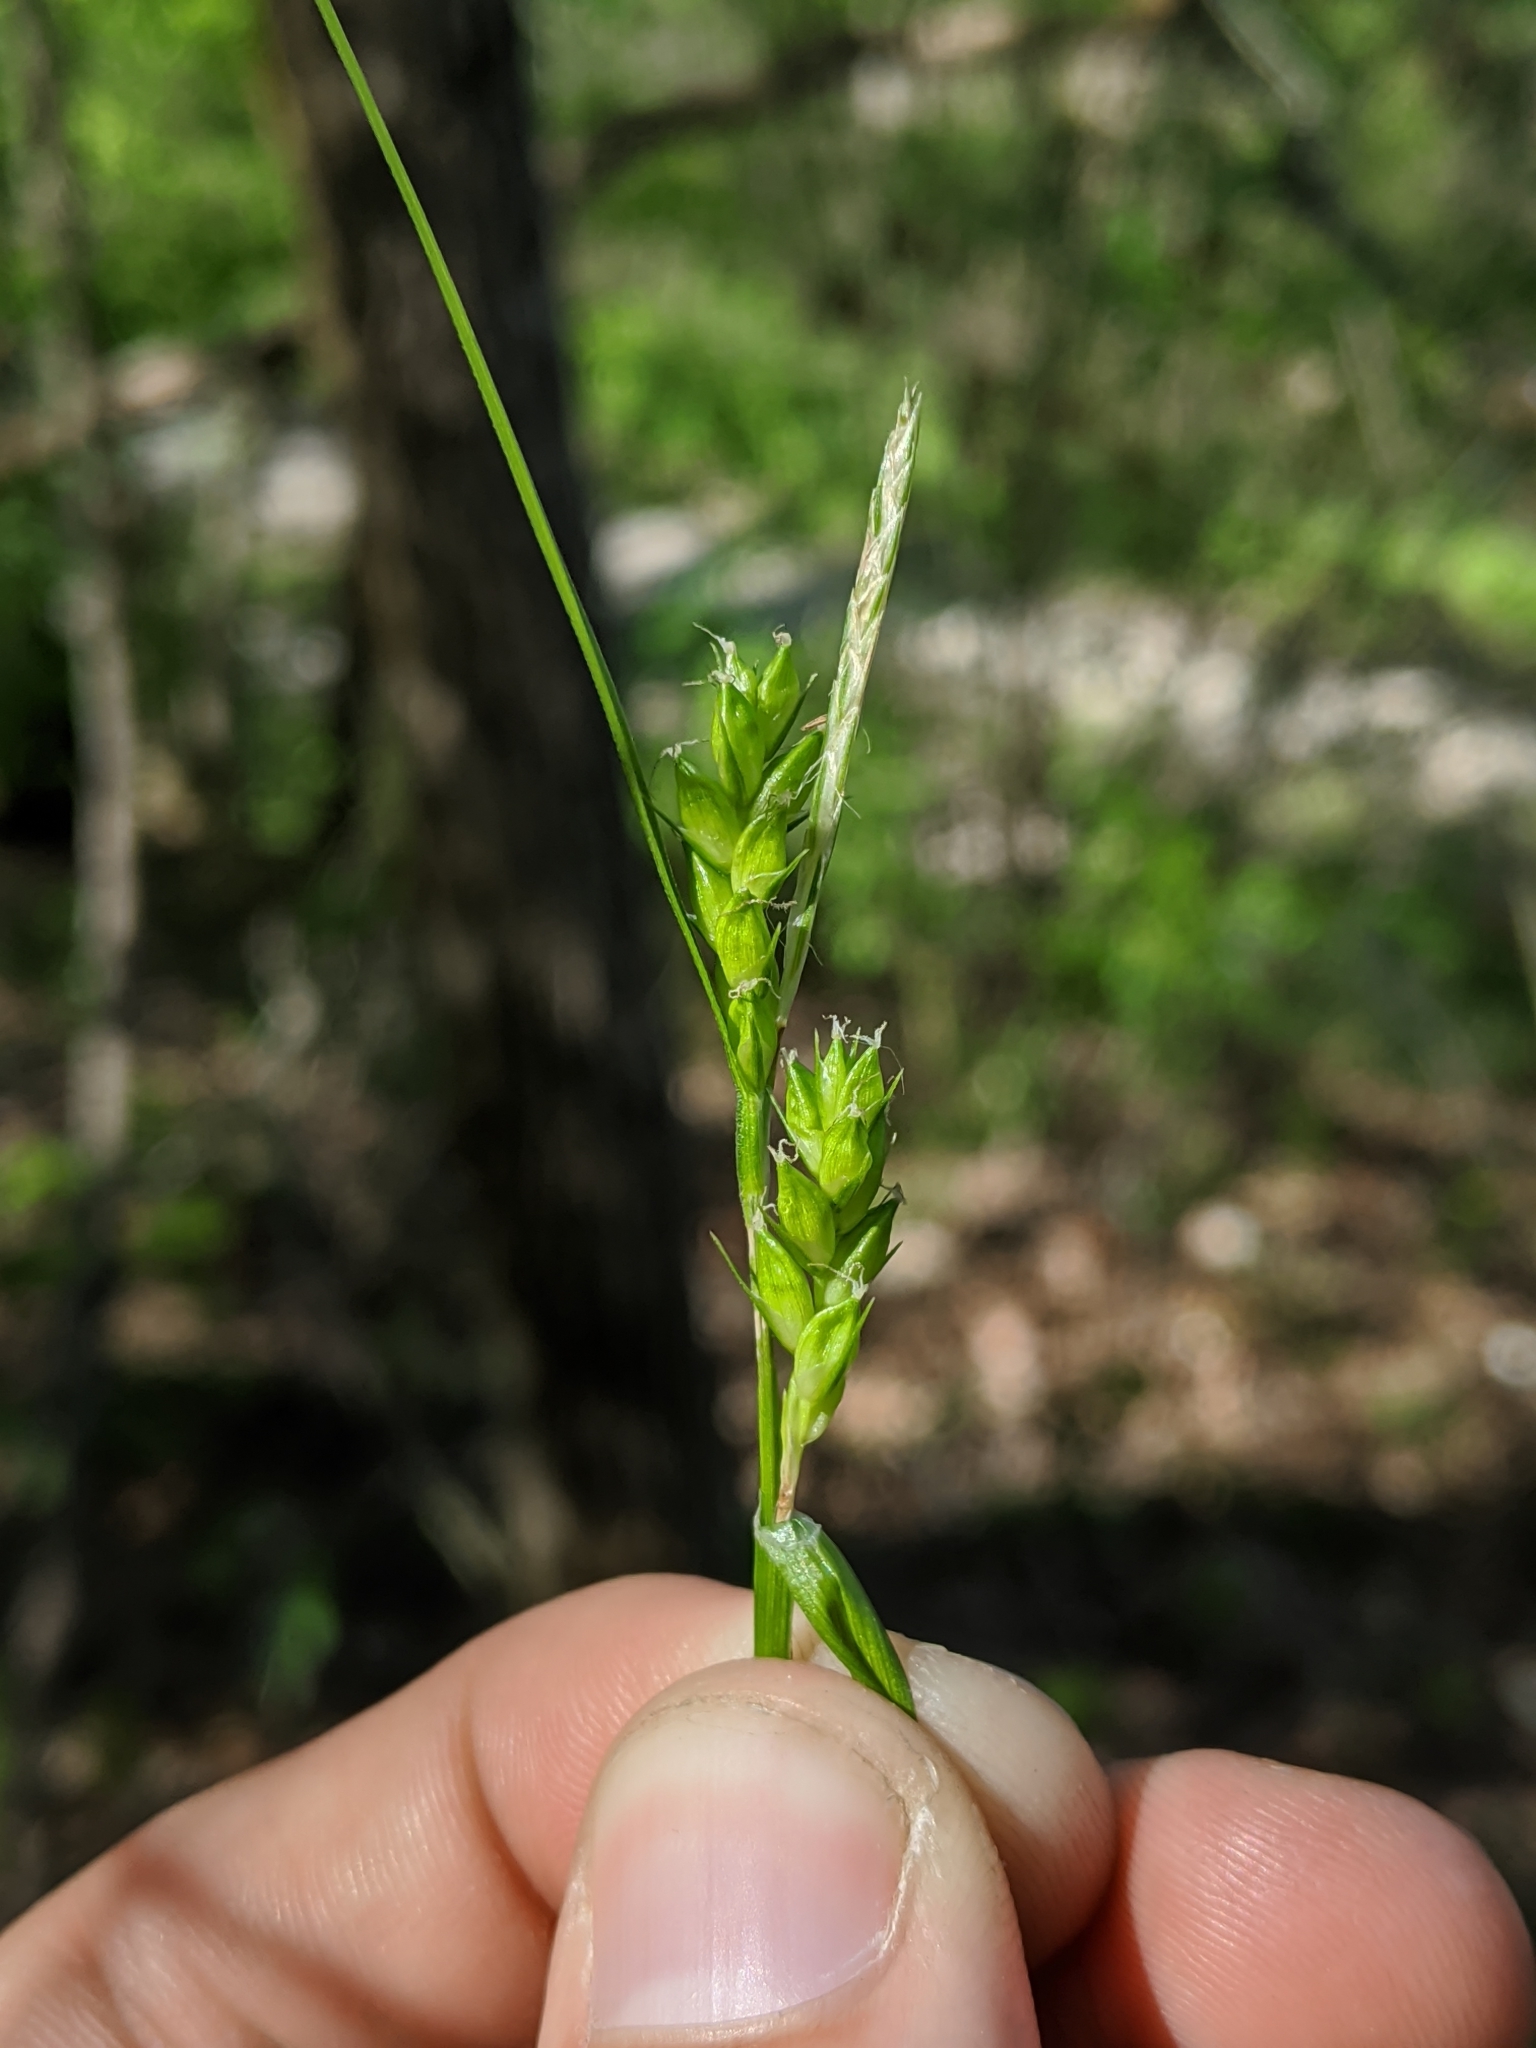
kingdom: Plantae
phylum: Tracheophyta
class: Liliopsida
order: Poales
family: Cyperaceae
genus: Carex
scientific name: Carex amphibola
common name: Amphibious sedge
